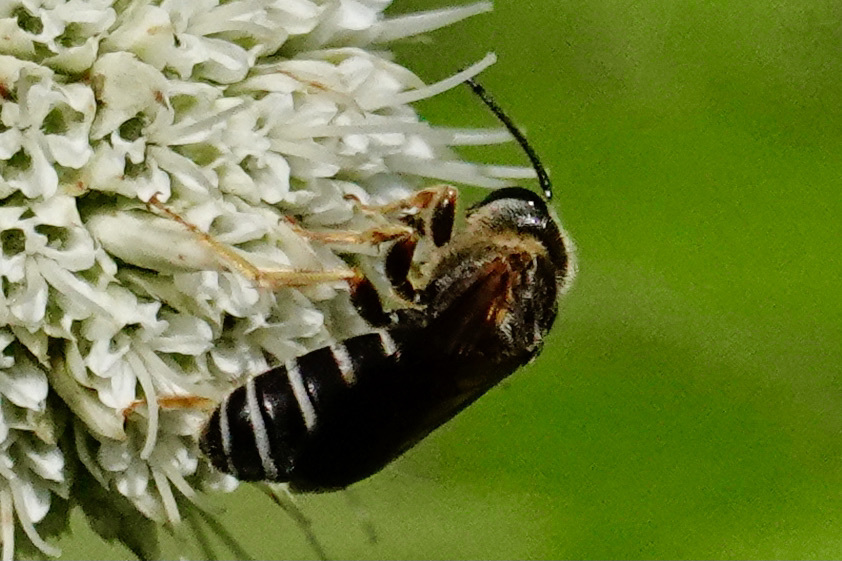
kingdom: Animalia
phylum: Arthropoda
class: Insecta
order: Hymenoptera
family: Halictidae
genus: Halictus
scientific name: Halictus parallelus
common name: Parallel-striped sweat bee
